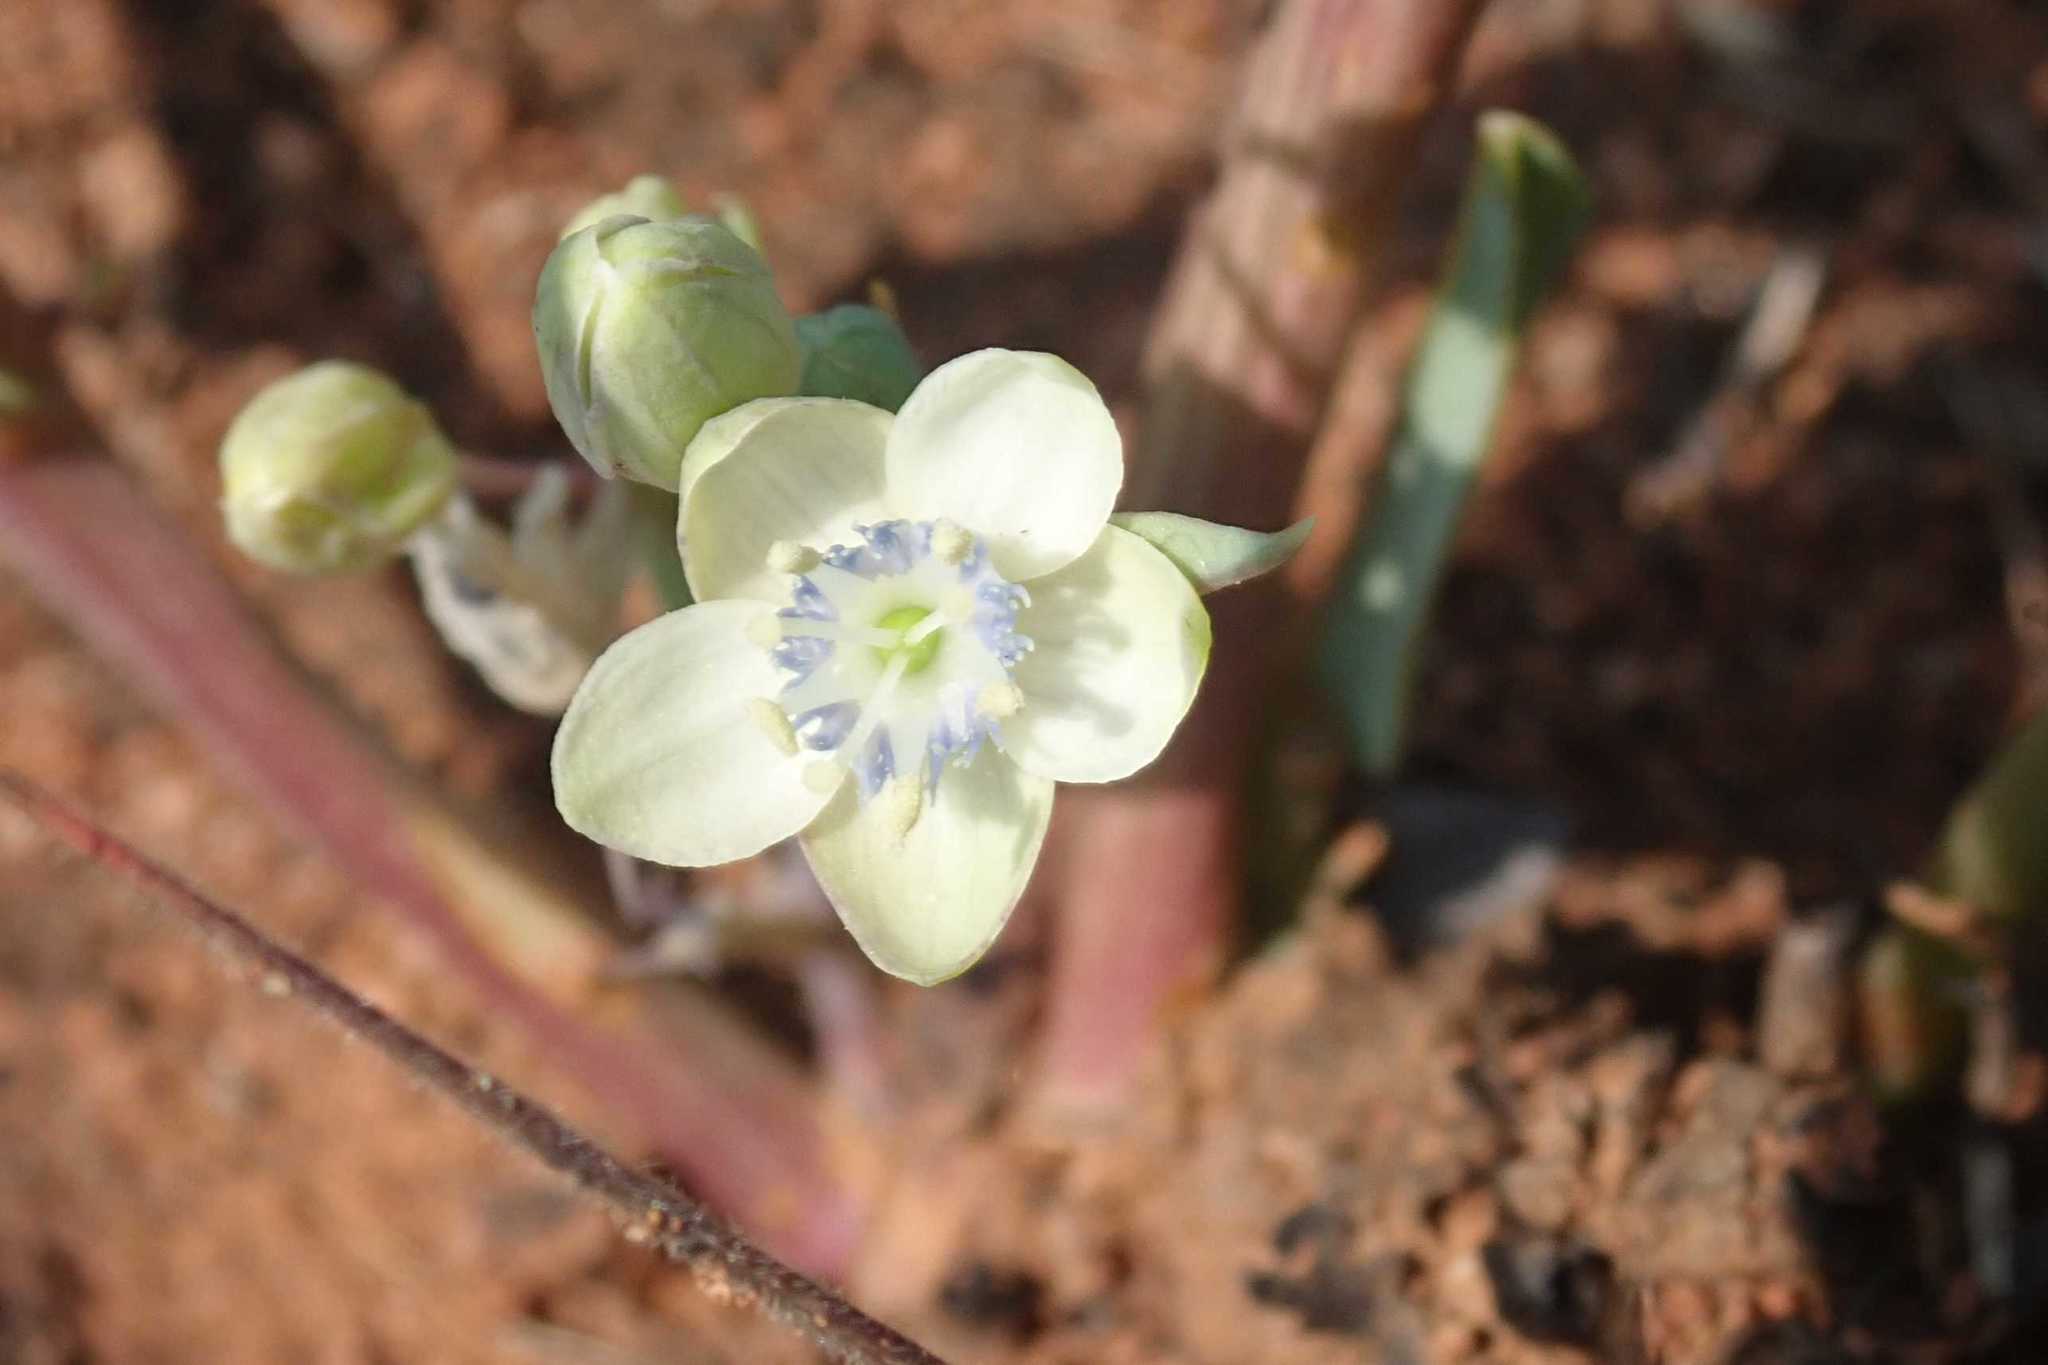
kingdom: Plantae
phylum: Tracheophyta
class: Magnoliopsida
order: Malpighiales
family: Passifloraceae
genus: Basananthe
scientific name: Basananthe sandersonii
